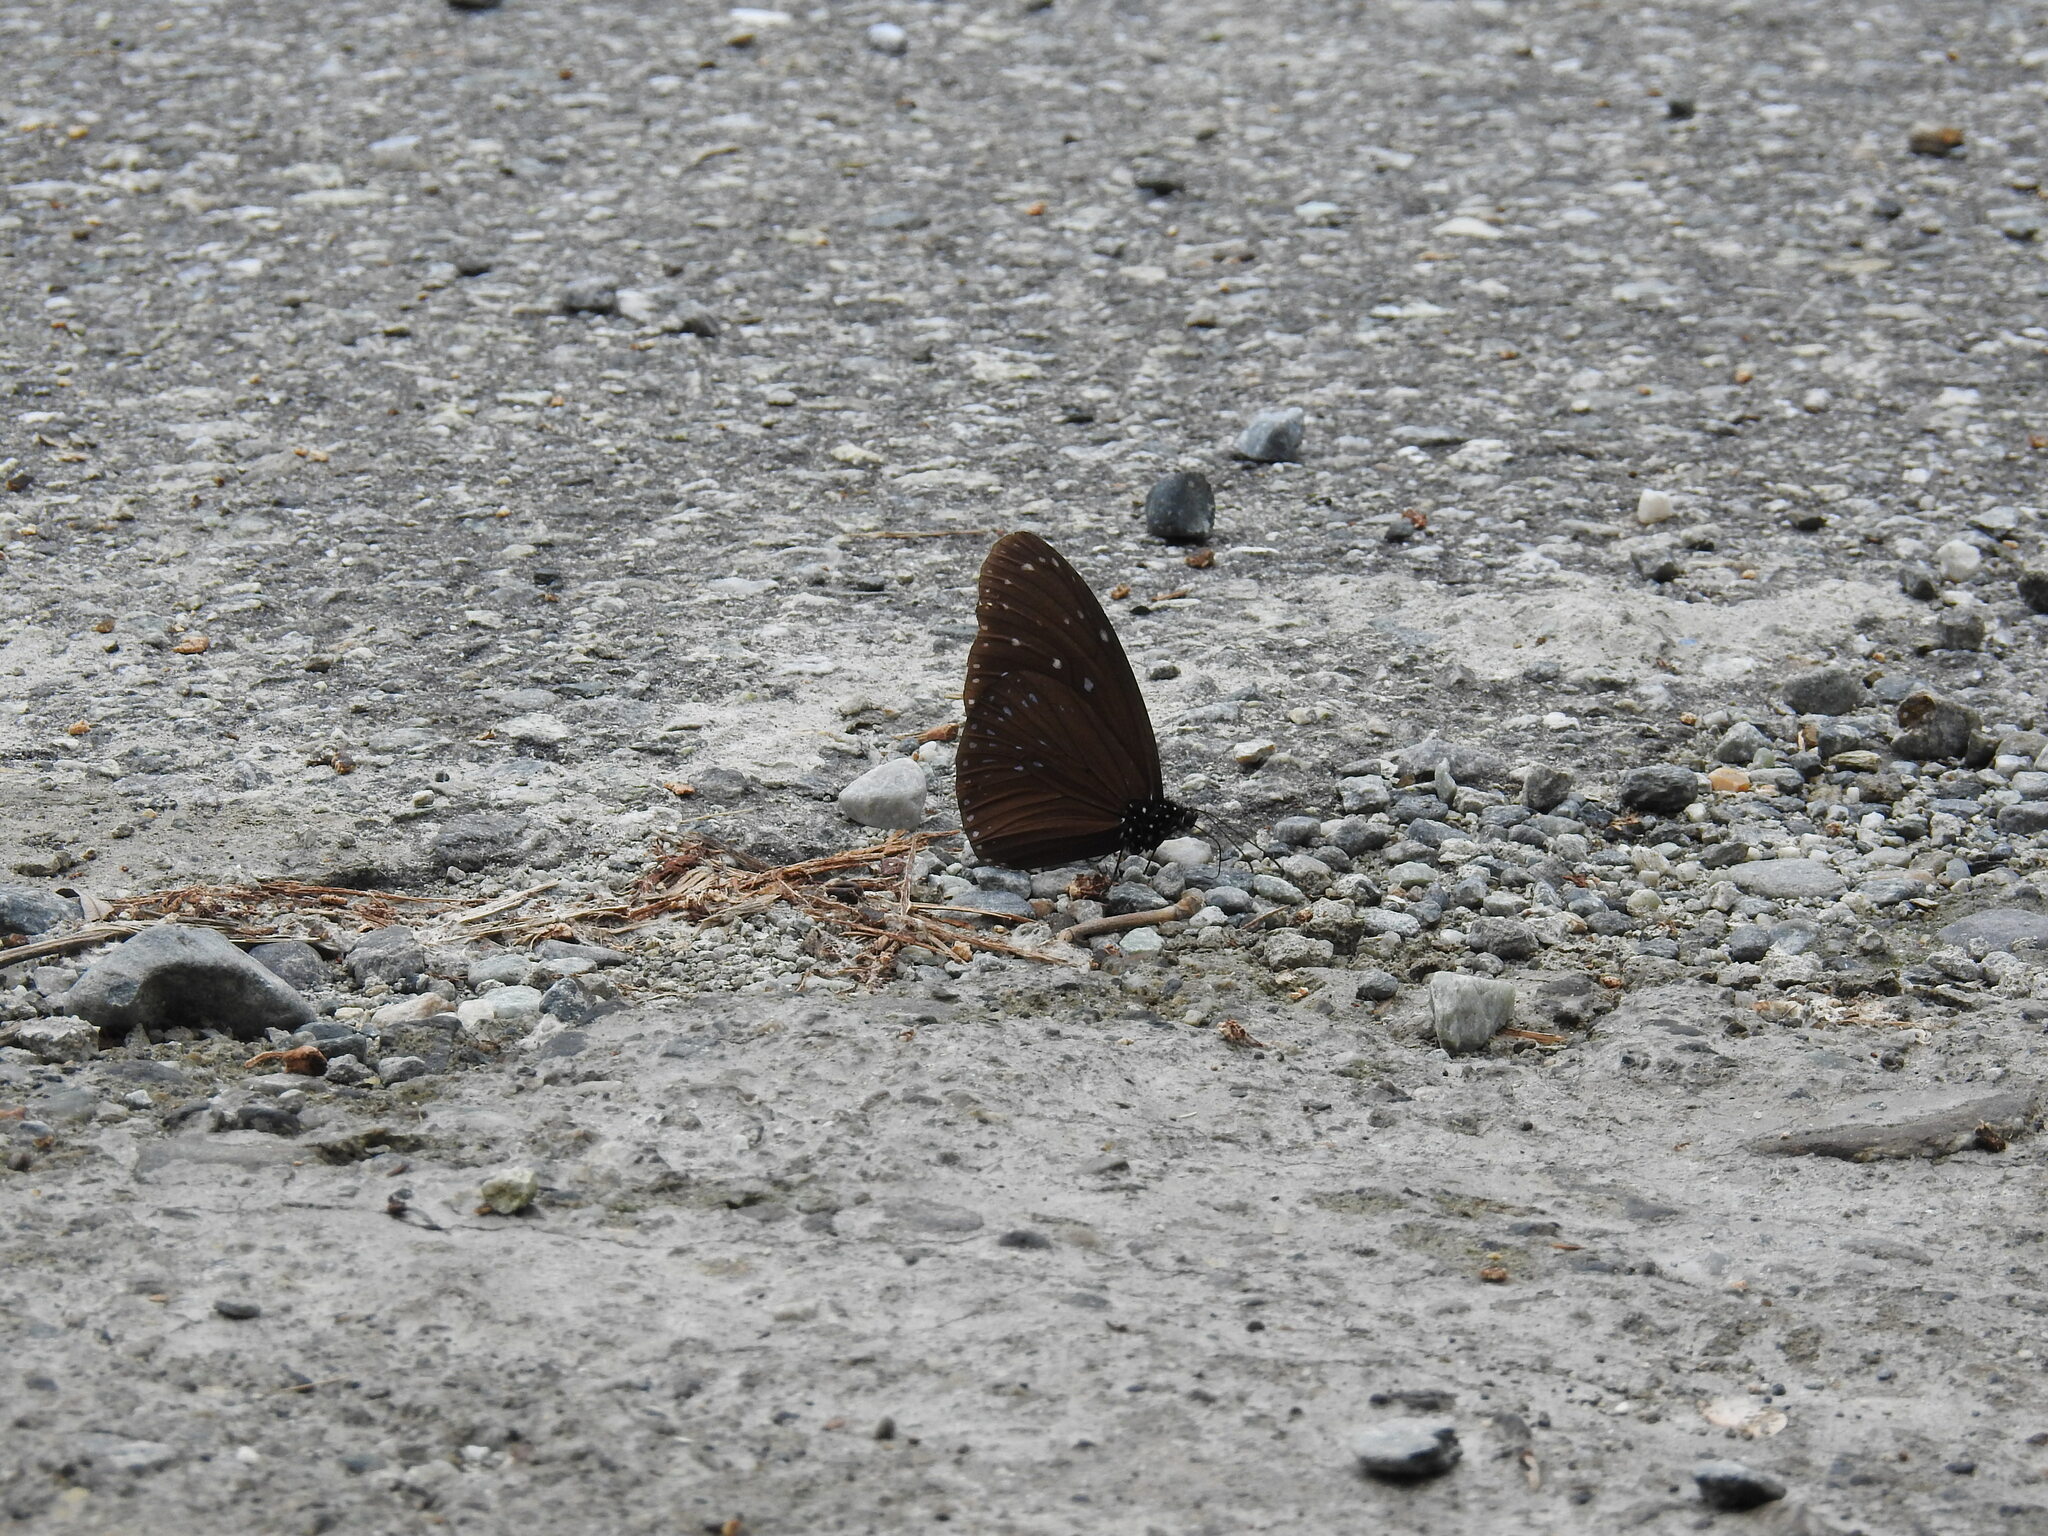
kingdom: Animalia
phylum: Arthropoda
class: Insecta
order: Lepidoptera
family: Nymphalidae
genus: Euploea
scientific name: Euploea mulciber
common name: Striped blue crow butterfly
